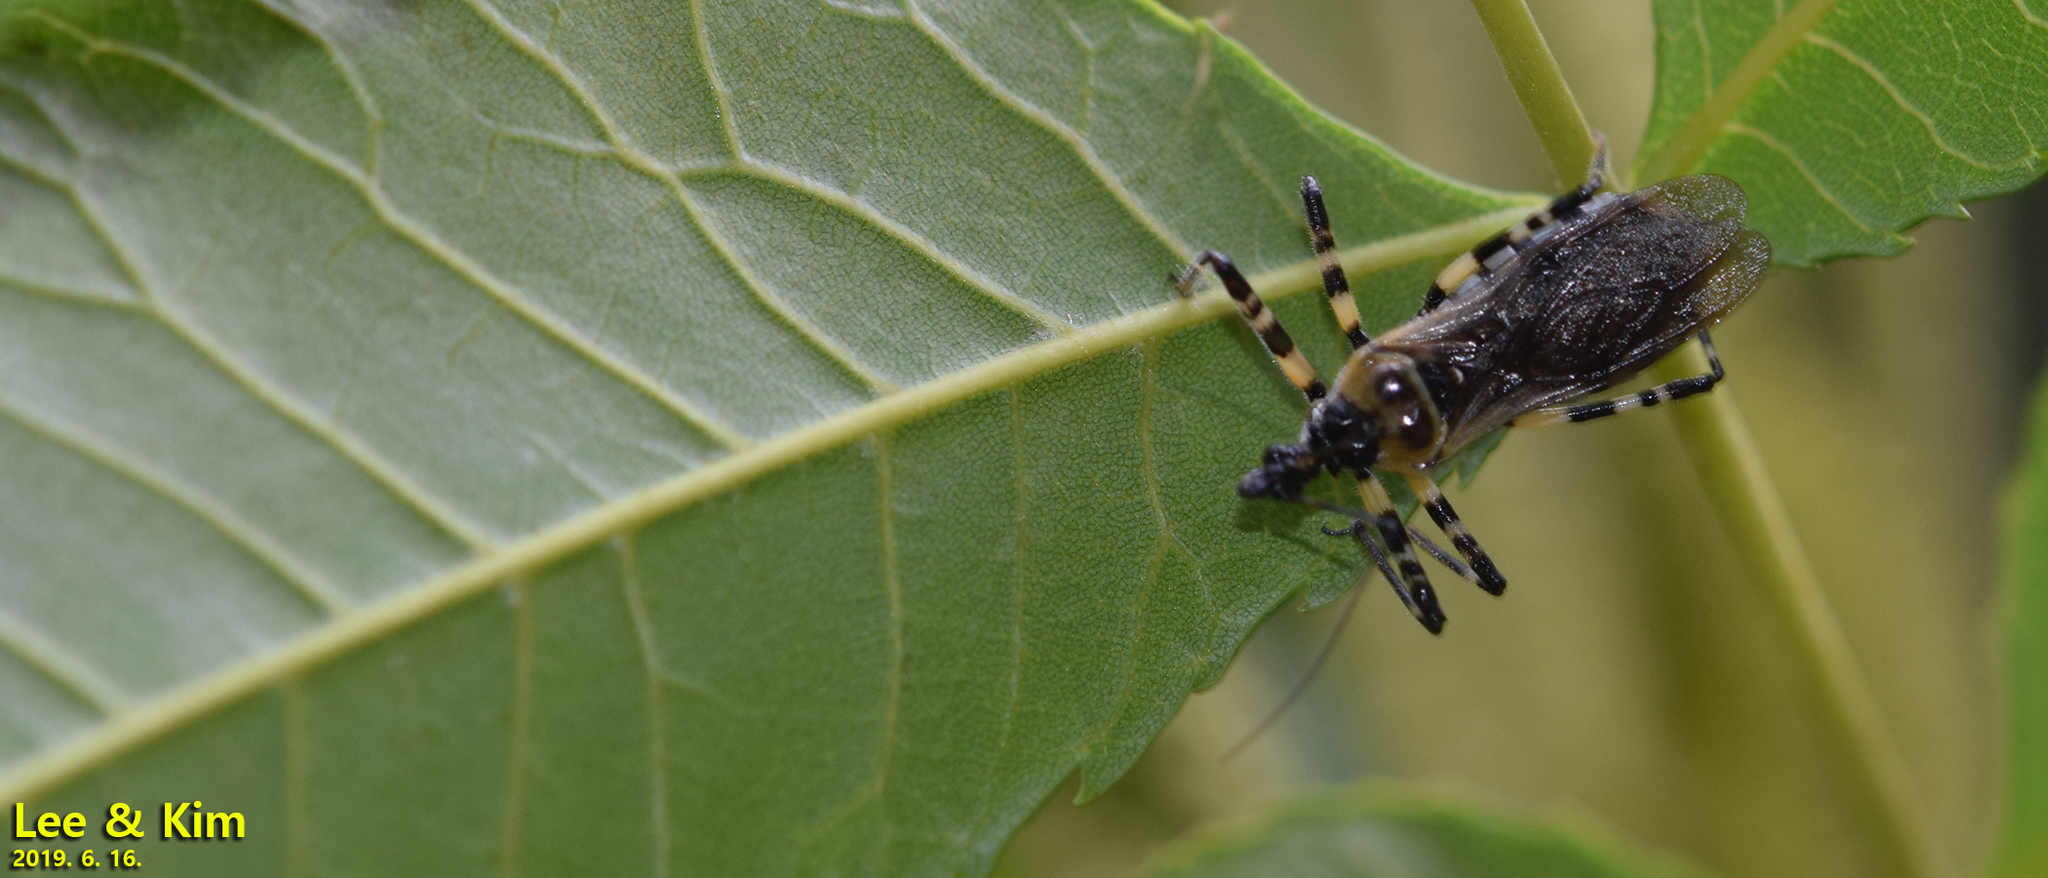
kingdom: Animalia
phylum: Arthropoda
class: Insecta
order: Hemiptera
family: Reduviidae
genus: Sphedanolestes
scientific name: Sphedanolestes impressicollis
